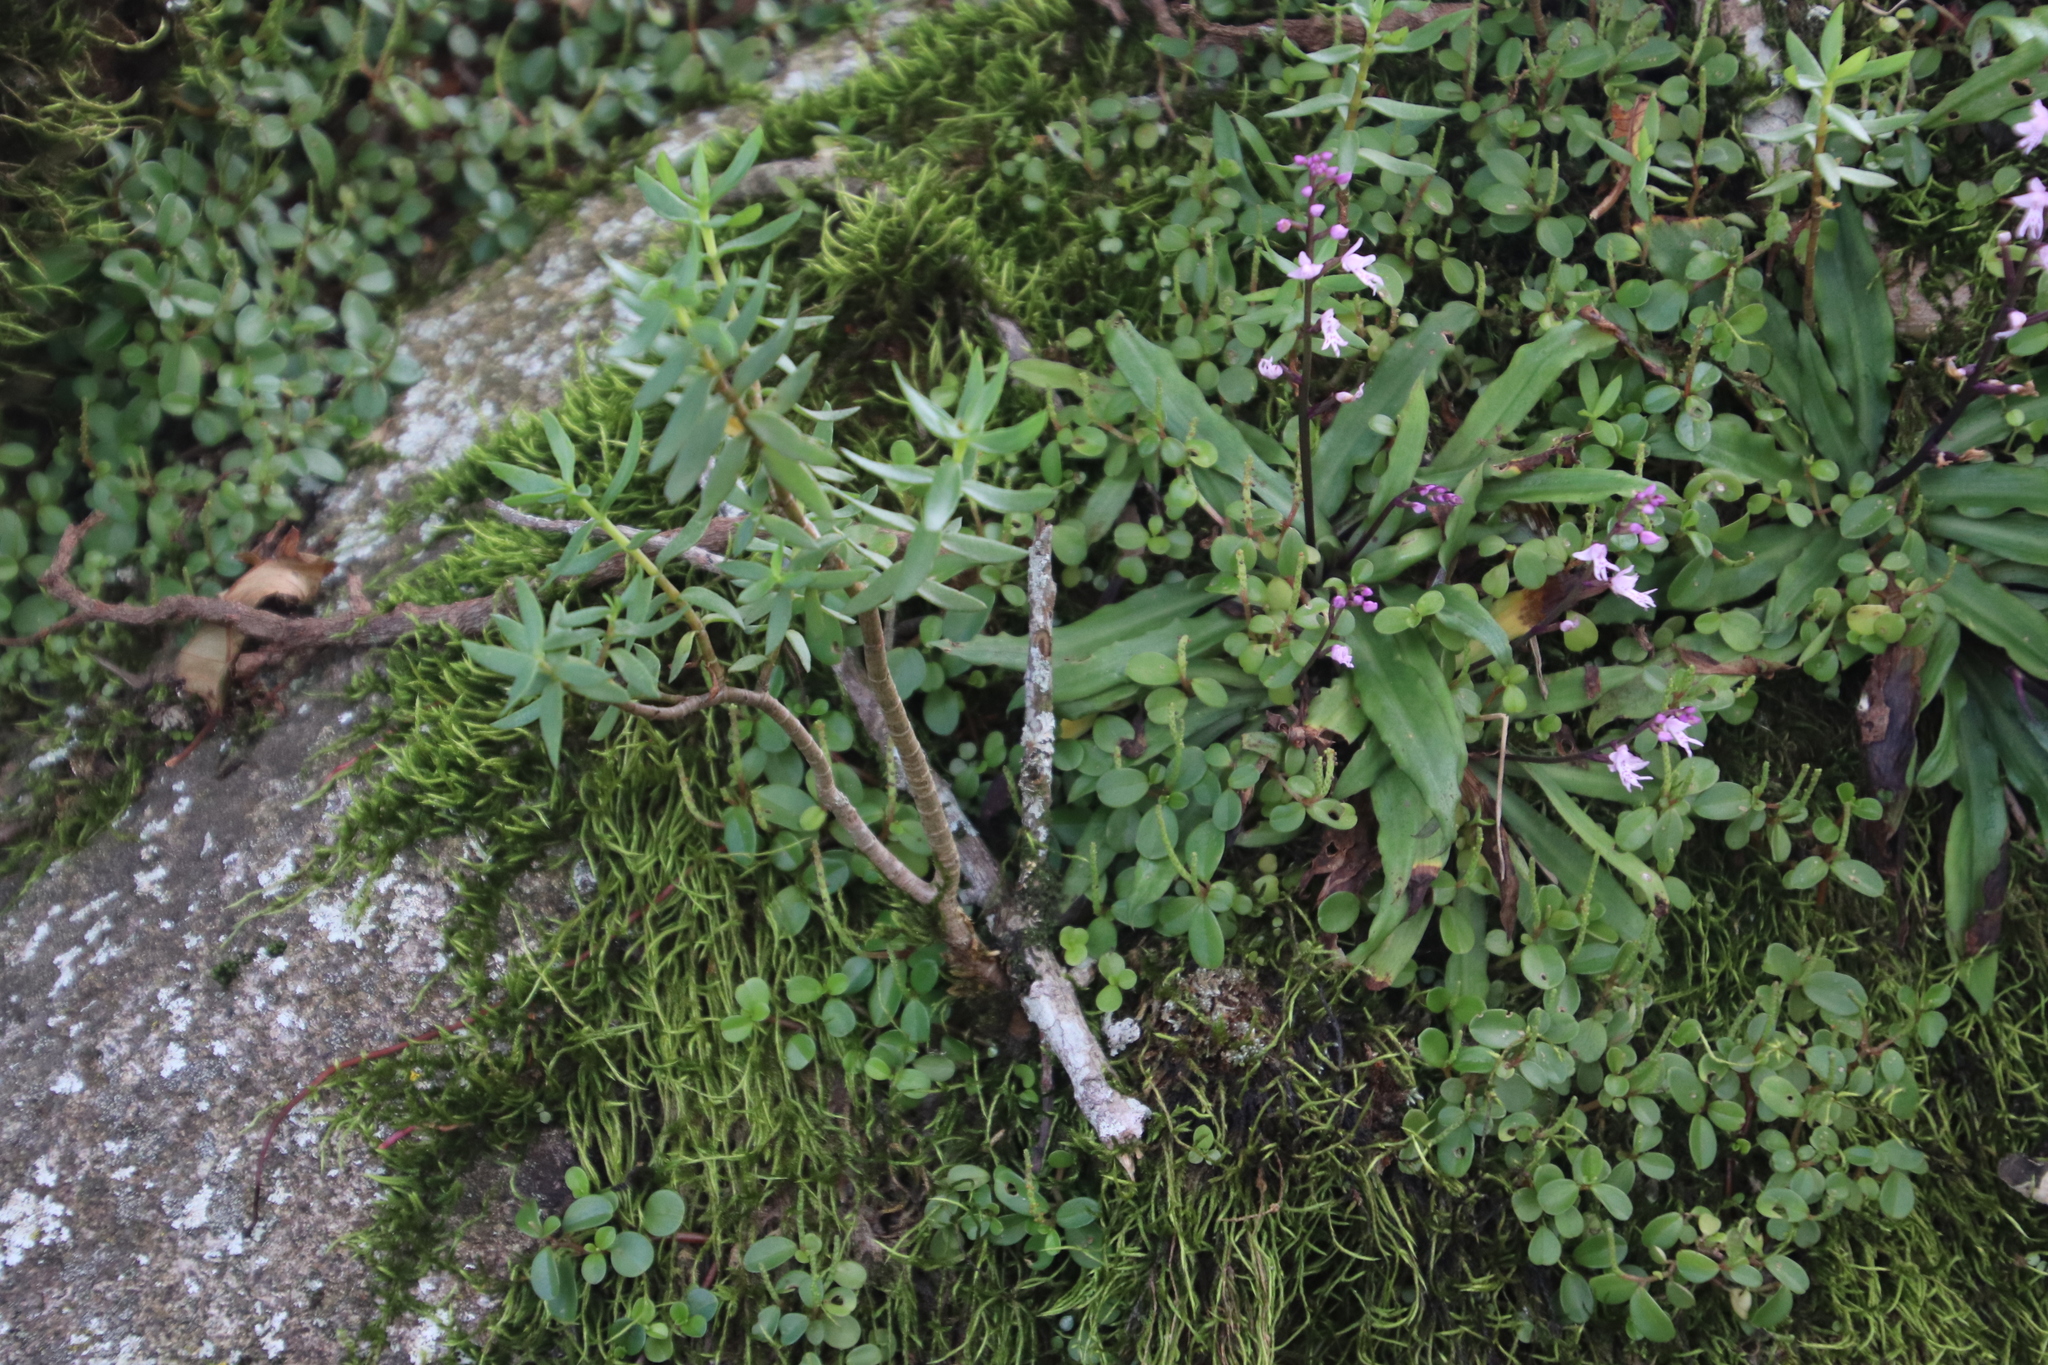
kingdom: Plantae
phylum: Tracheophyta
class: Magnoliopsida
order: Saxifragales
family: Crassulaceae
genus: Crassula
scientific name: Crassula sarcocaulis
